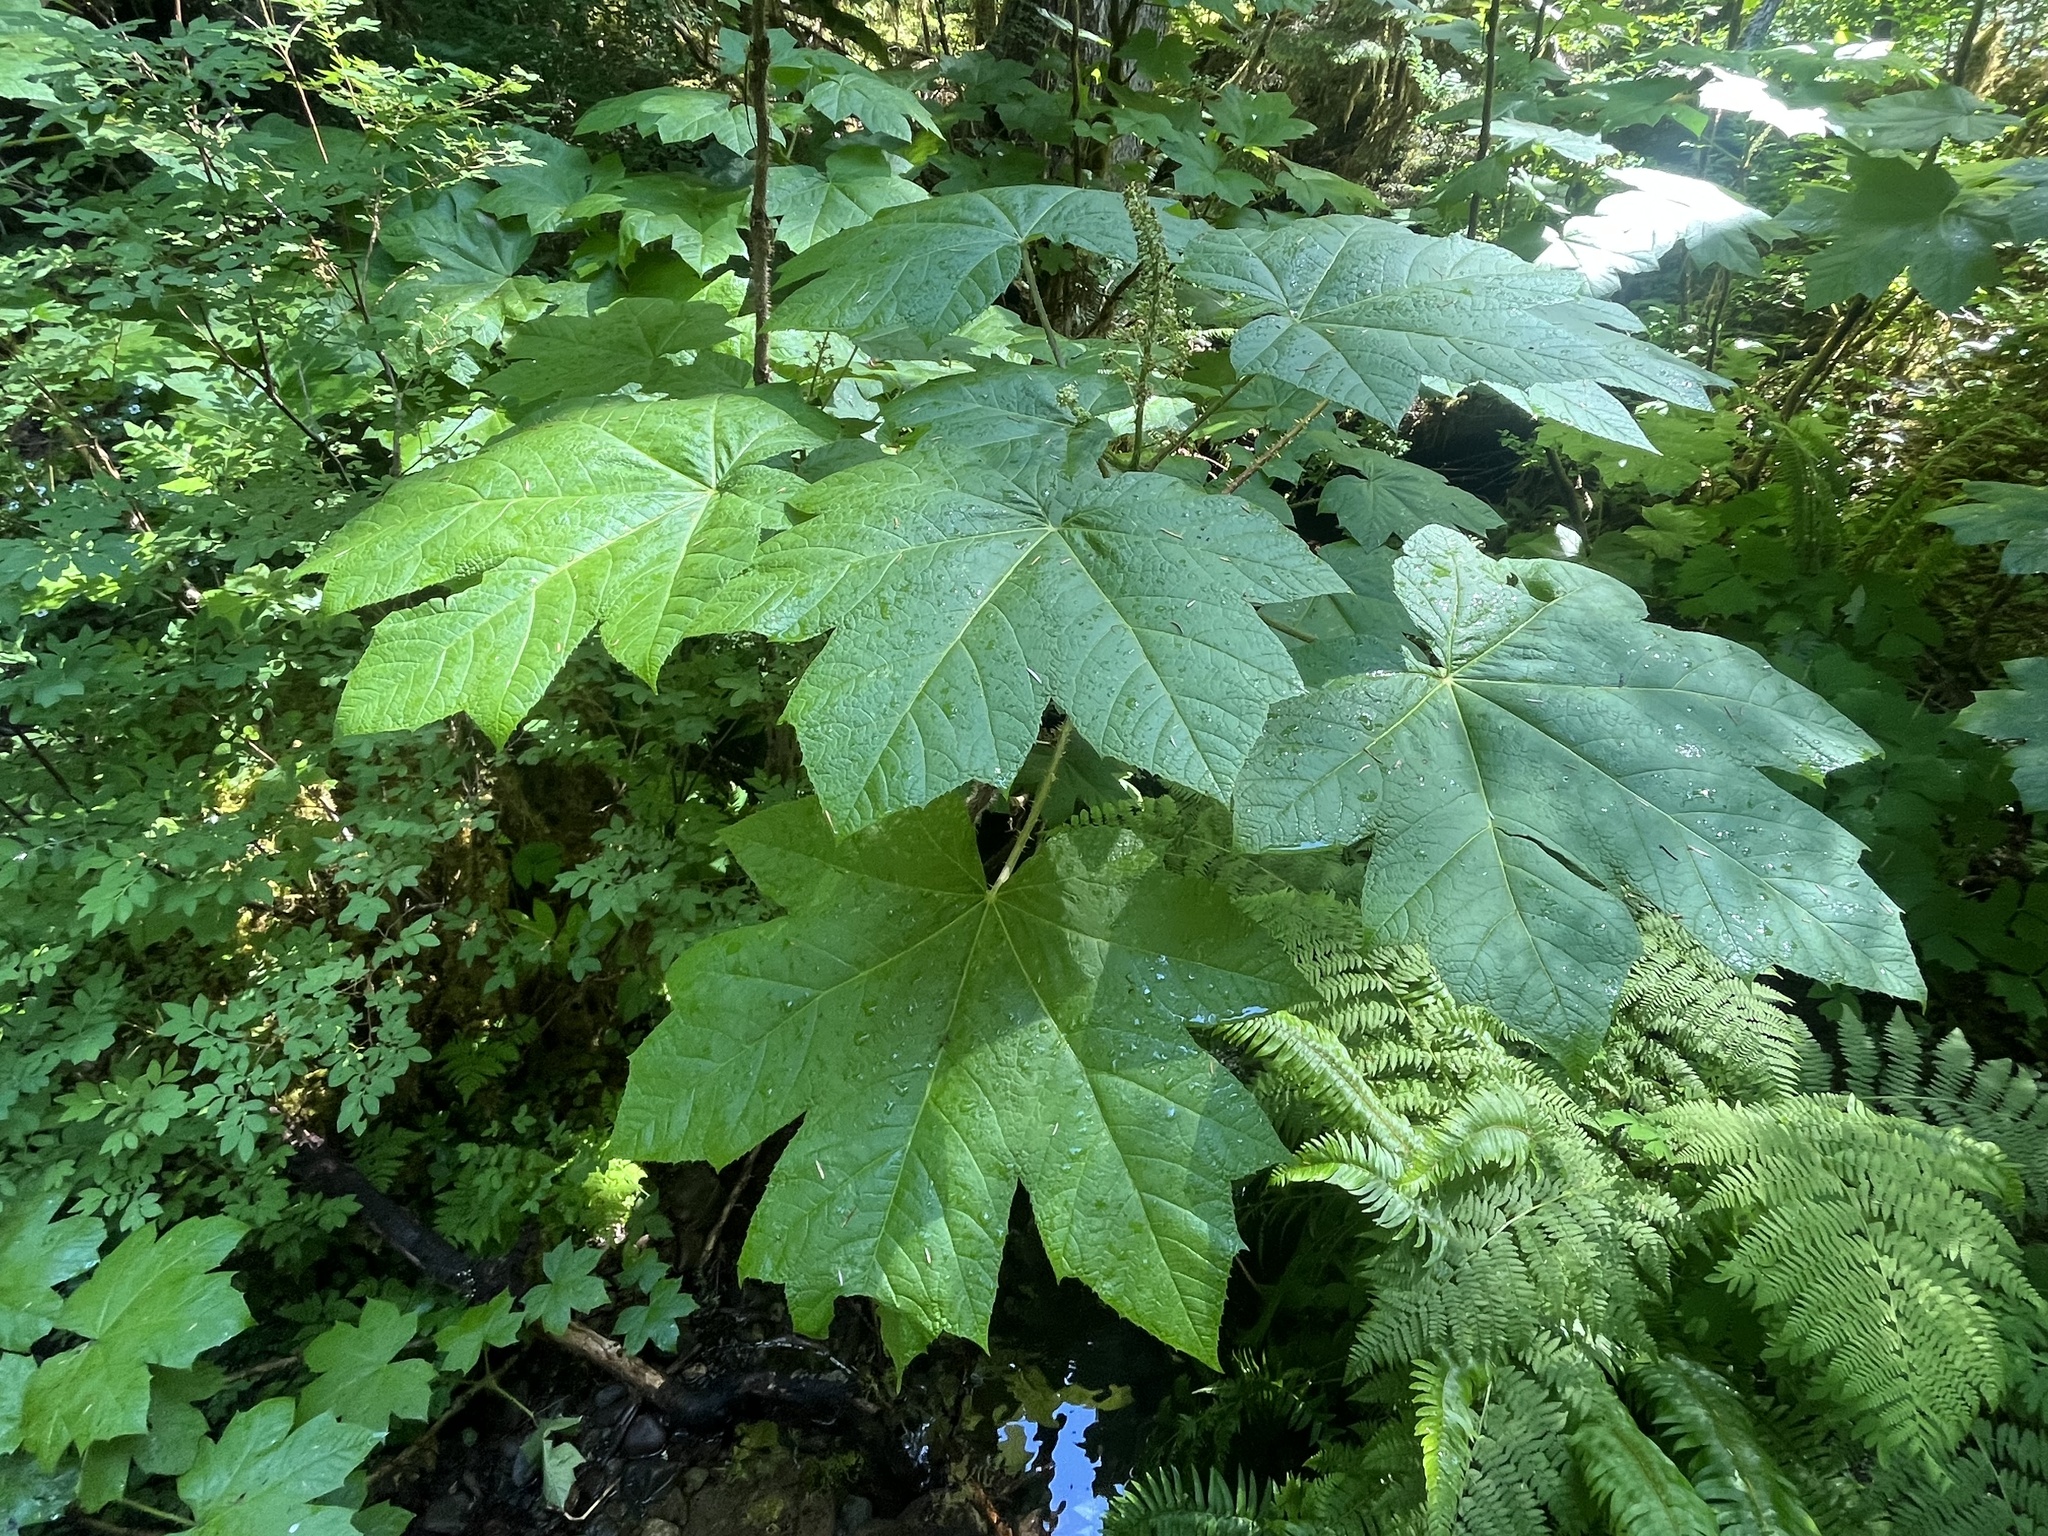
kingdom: Plantae
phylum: Tracheophyta
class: Magnoliopsida
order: Apiales
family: Araliaceae
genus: Oplopanax
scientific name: Oplopanax horridus
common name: Devil's walking-stick
